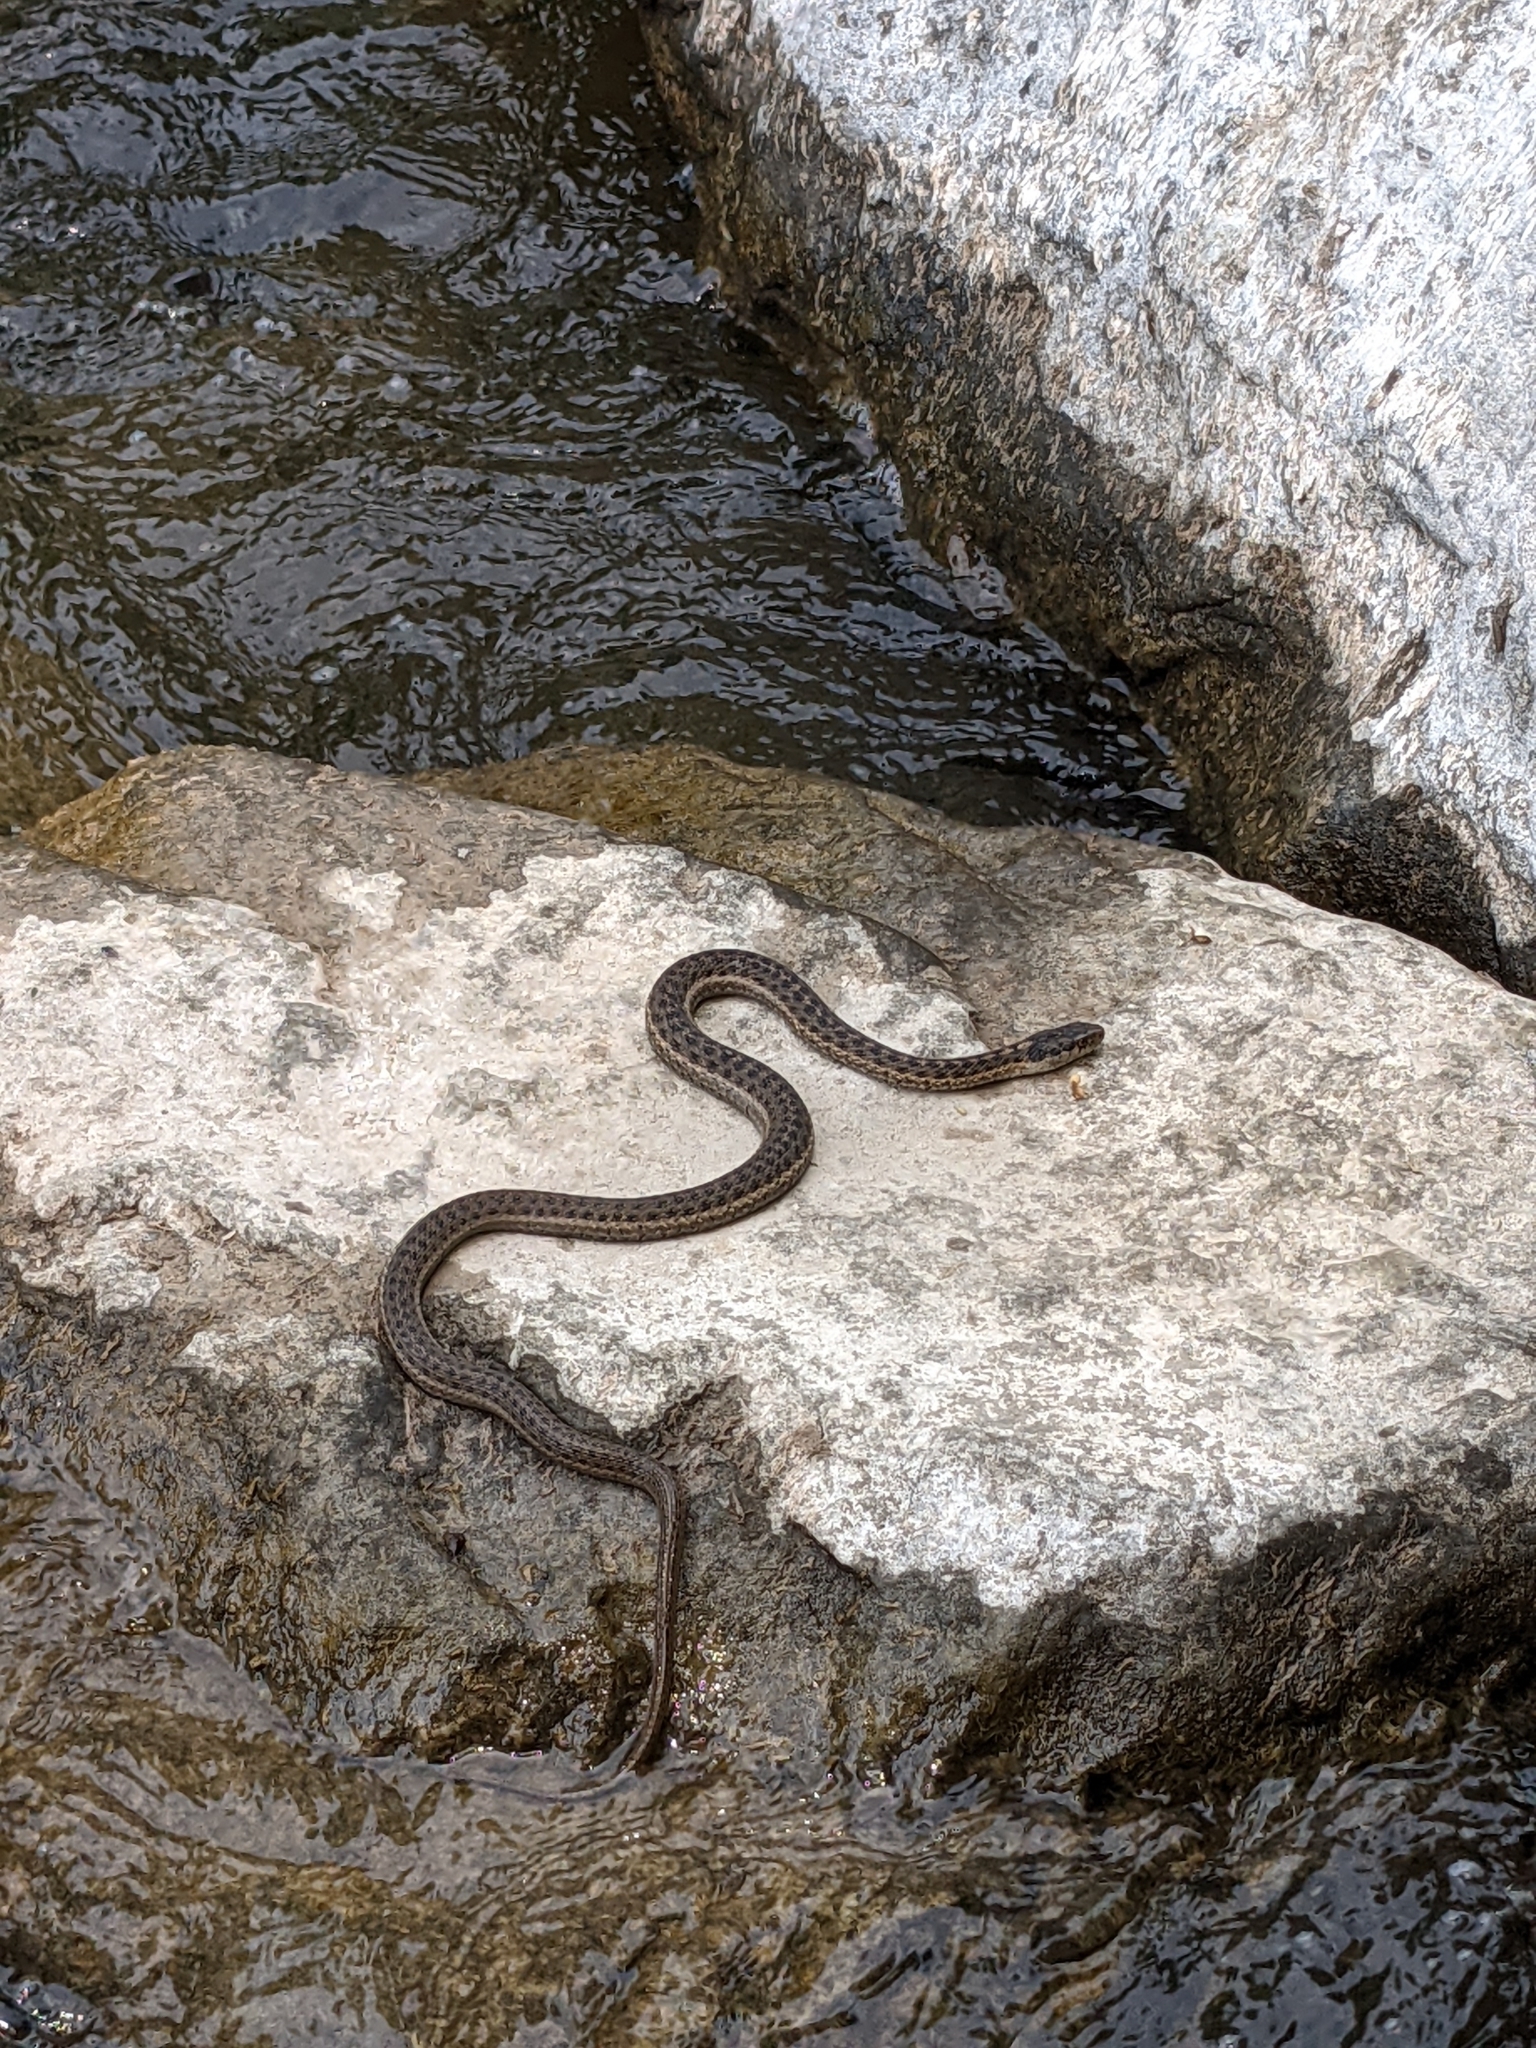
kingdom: Animalia
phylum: Chordata
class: Squamata
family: Colubridae
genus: Thamnophis
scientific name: Thamnophis elegans
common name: Western terrestrial garter snake
